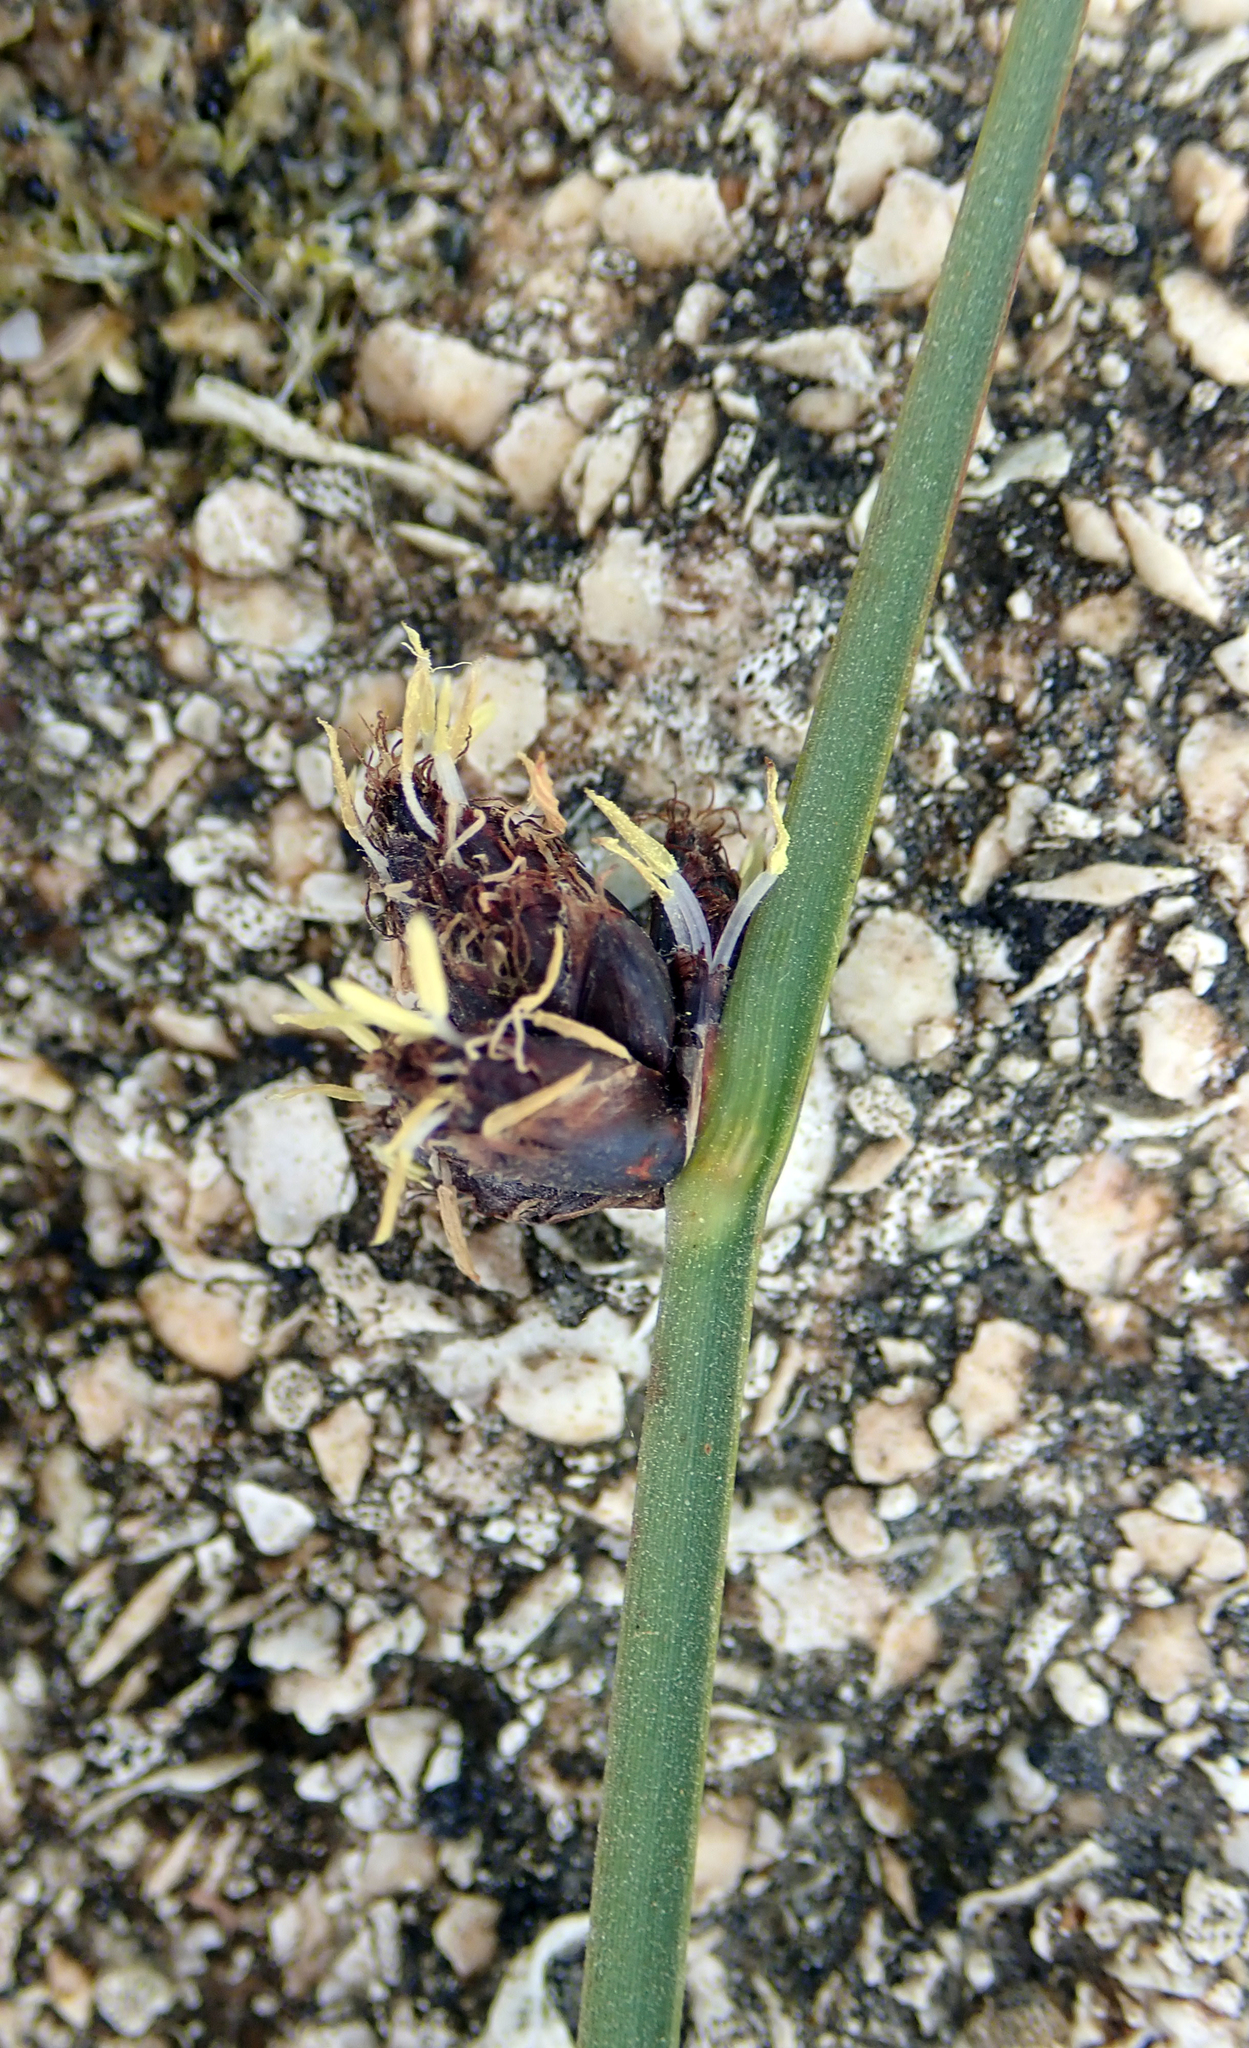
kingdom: Plantae
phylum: Tracheophyta
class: Liliopsida
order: Poales
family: Cyperaceae
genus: Schoenoplectus
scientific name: Schoenoplectus pungens
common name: Sharp club-rush
